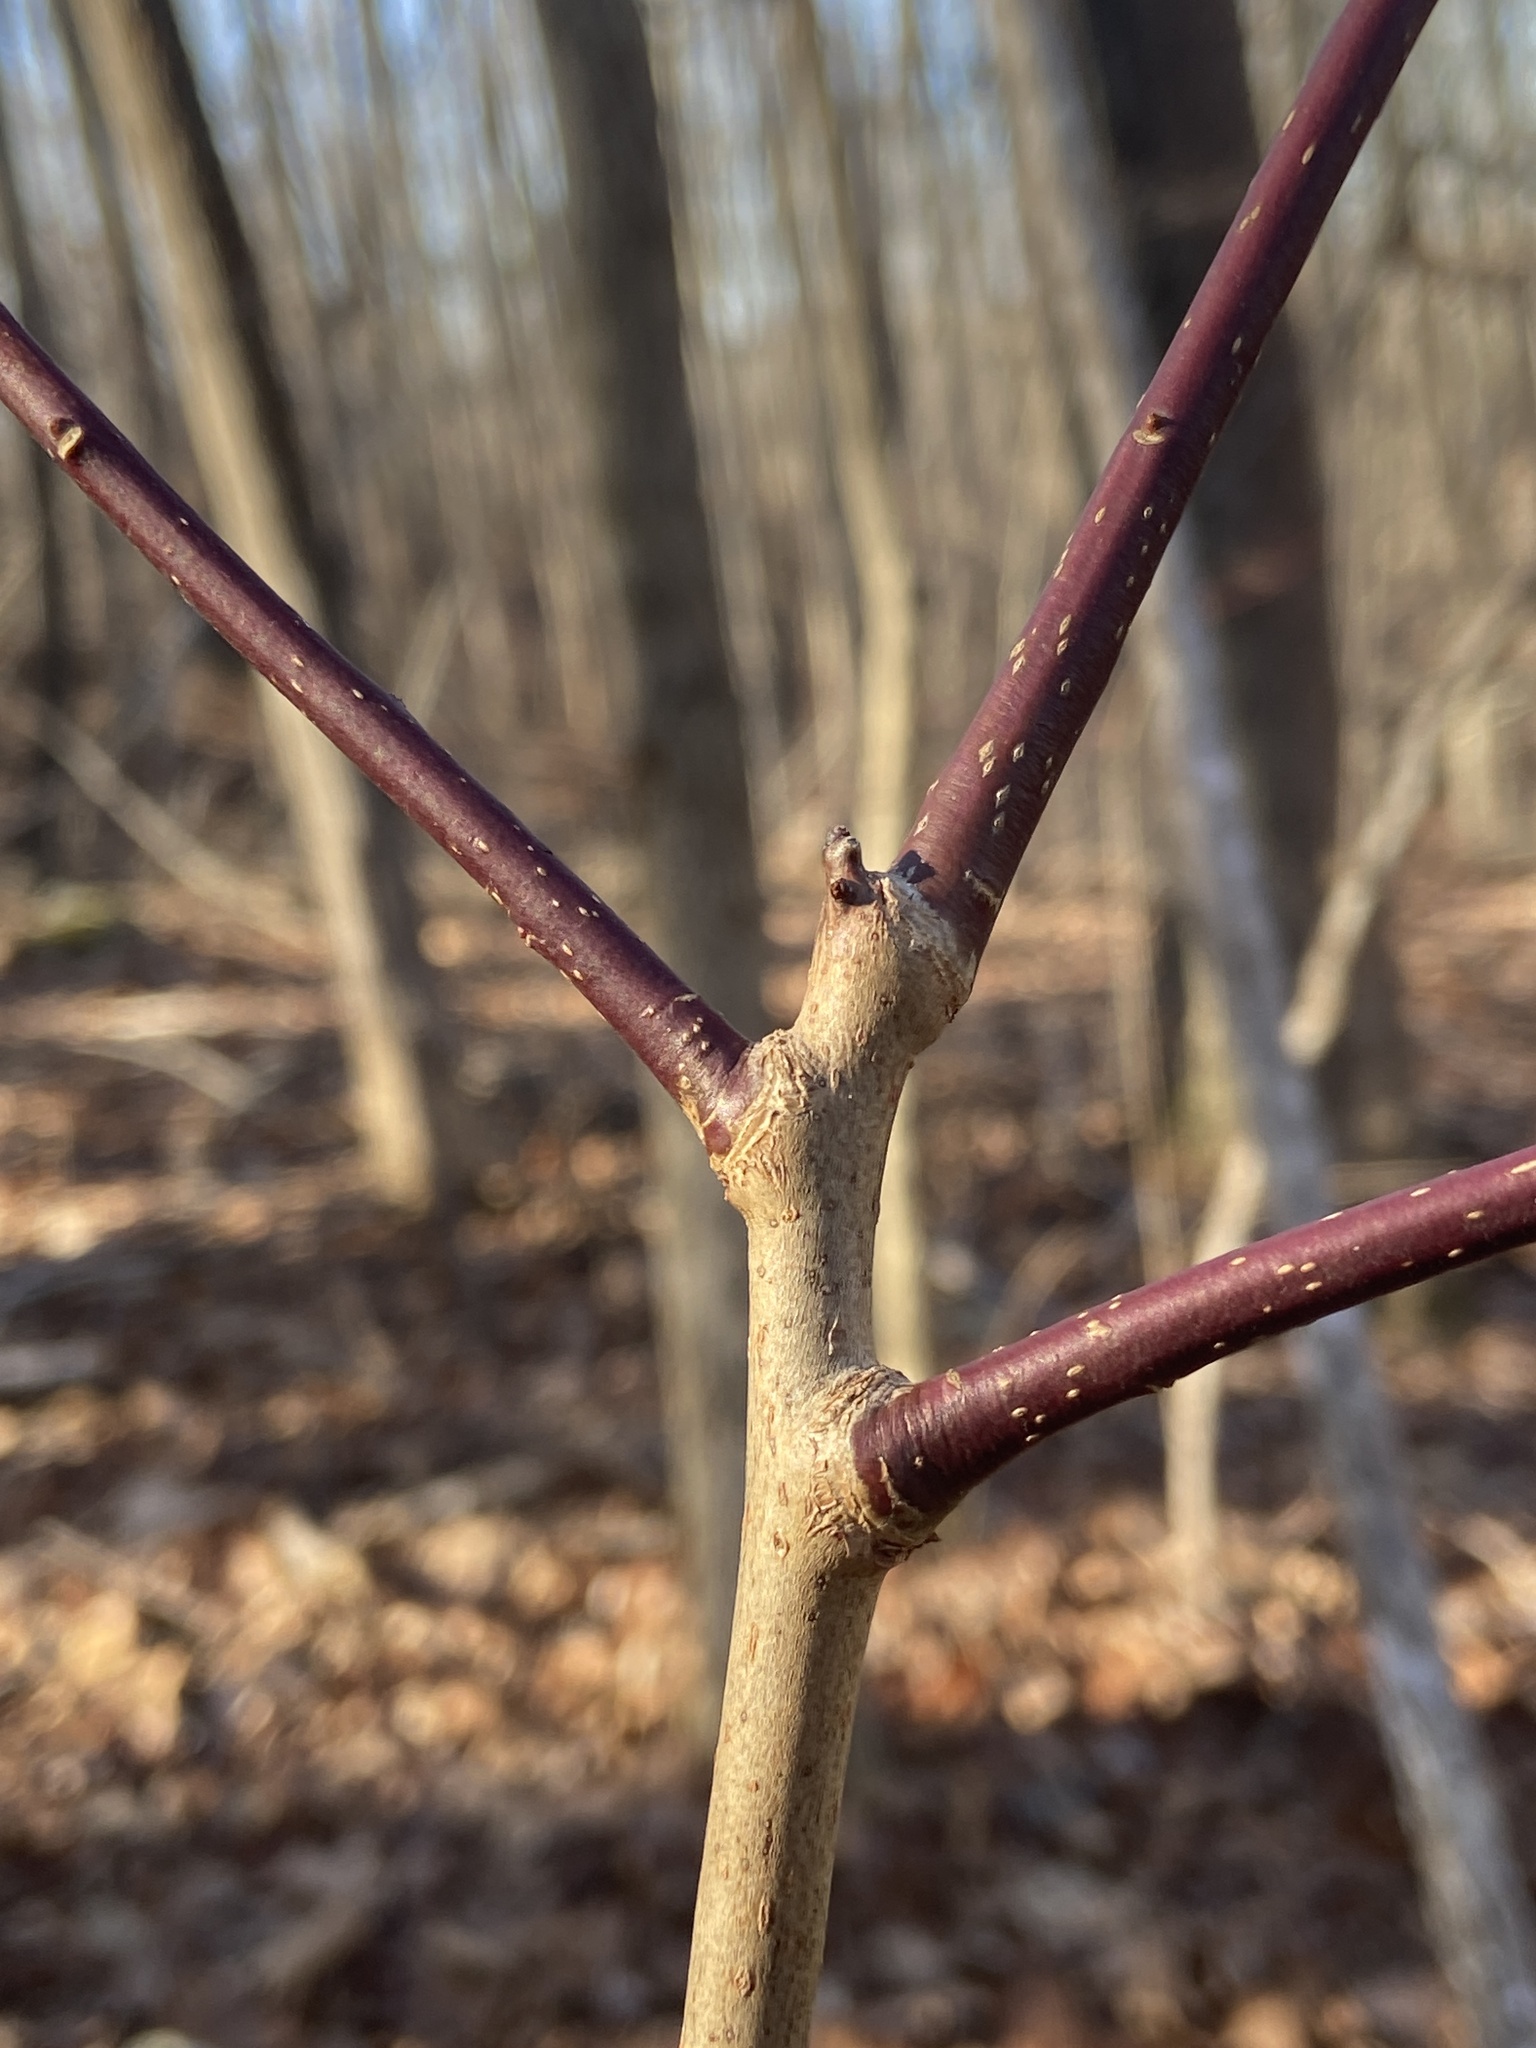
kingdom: Plantae
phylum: Tracheophyta
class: Magnoliopsida
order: Ericales
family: Ericaceae
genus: Oxydendrum
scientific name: Oxydendrum arboreum
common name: Sourwood
